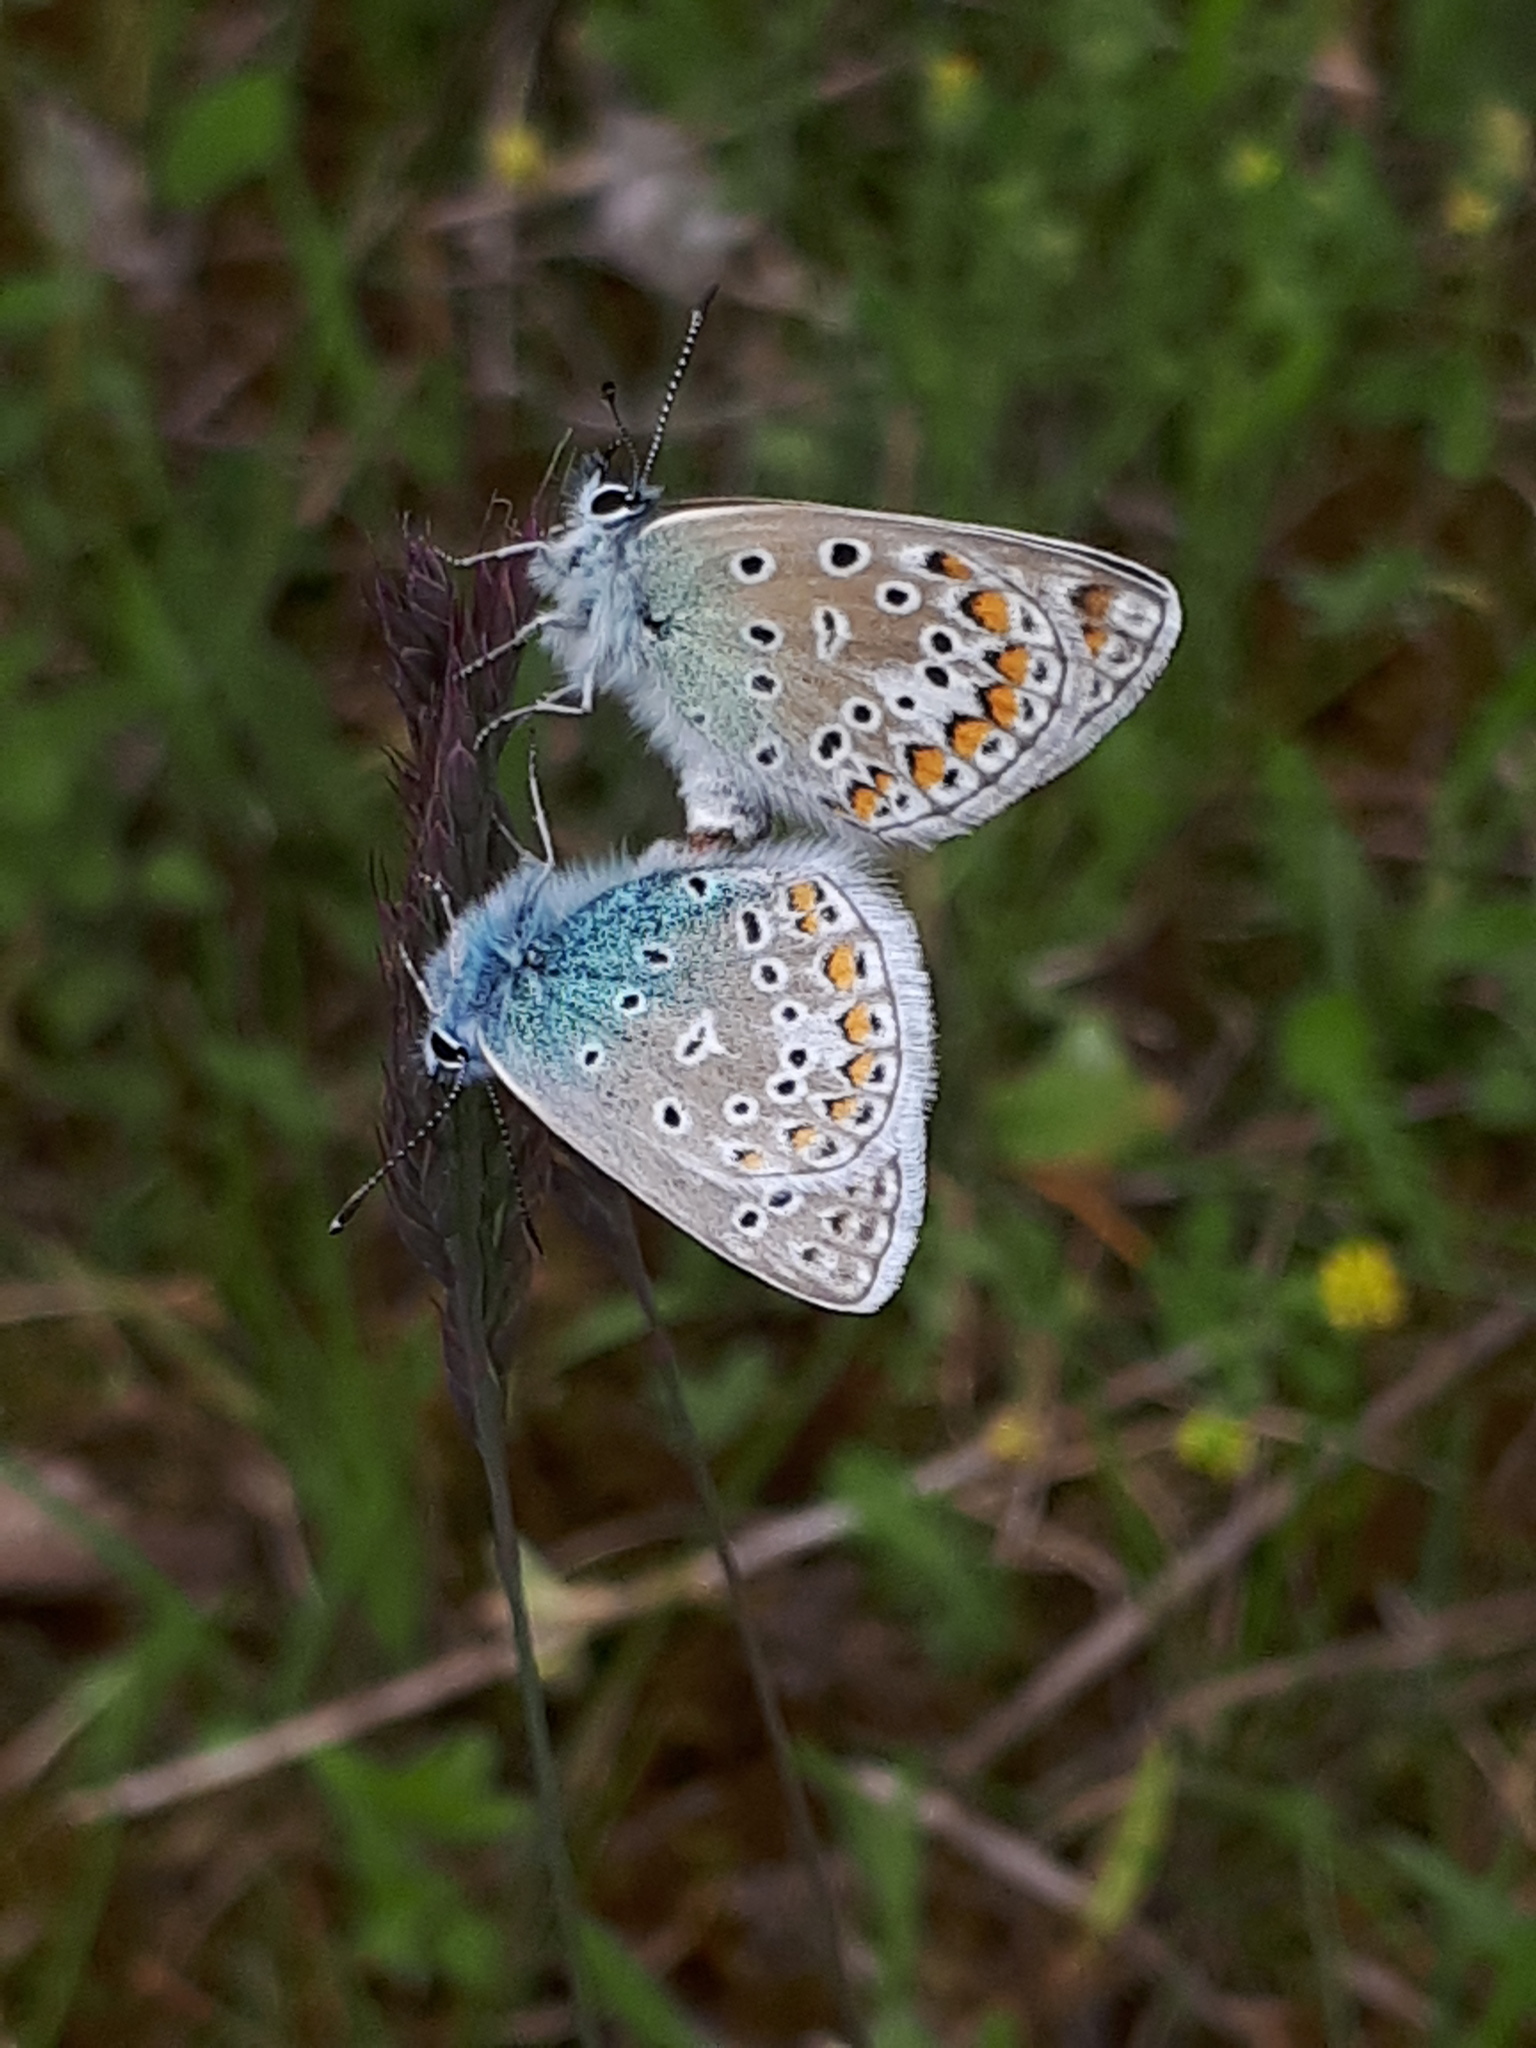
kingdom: Animalia
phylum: Arthropoda
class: Insecta
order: Lepidoptera
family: Lycaenidae
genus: Polyommatus
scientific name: Polyommatus icarus
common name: Common blue
